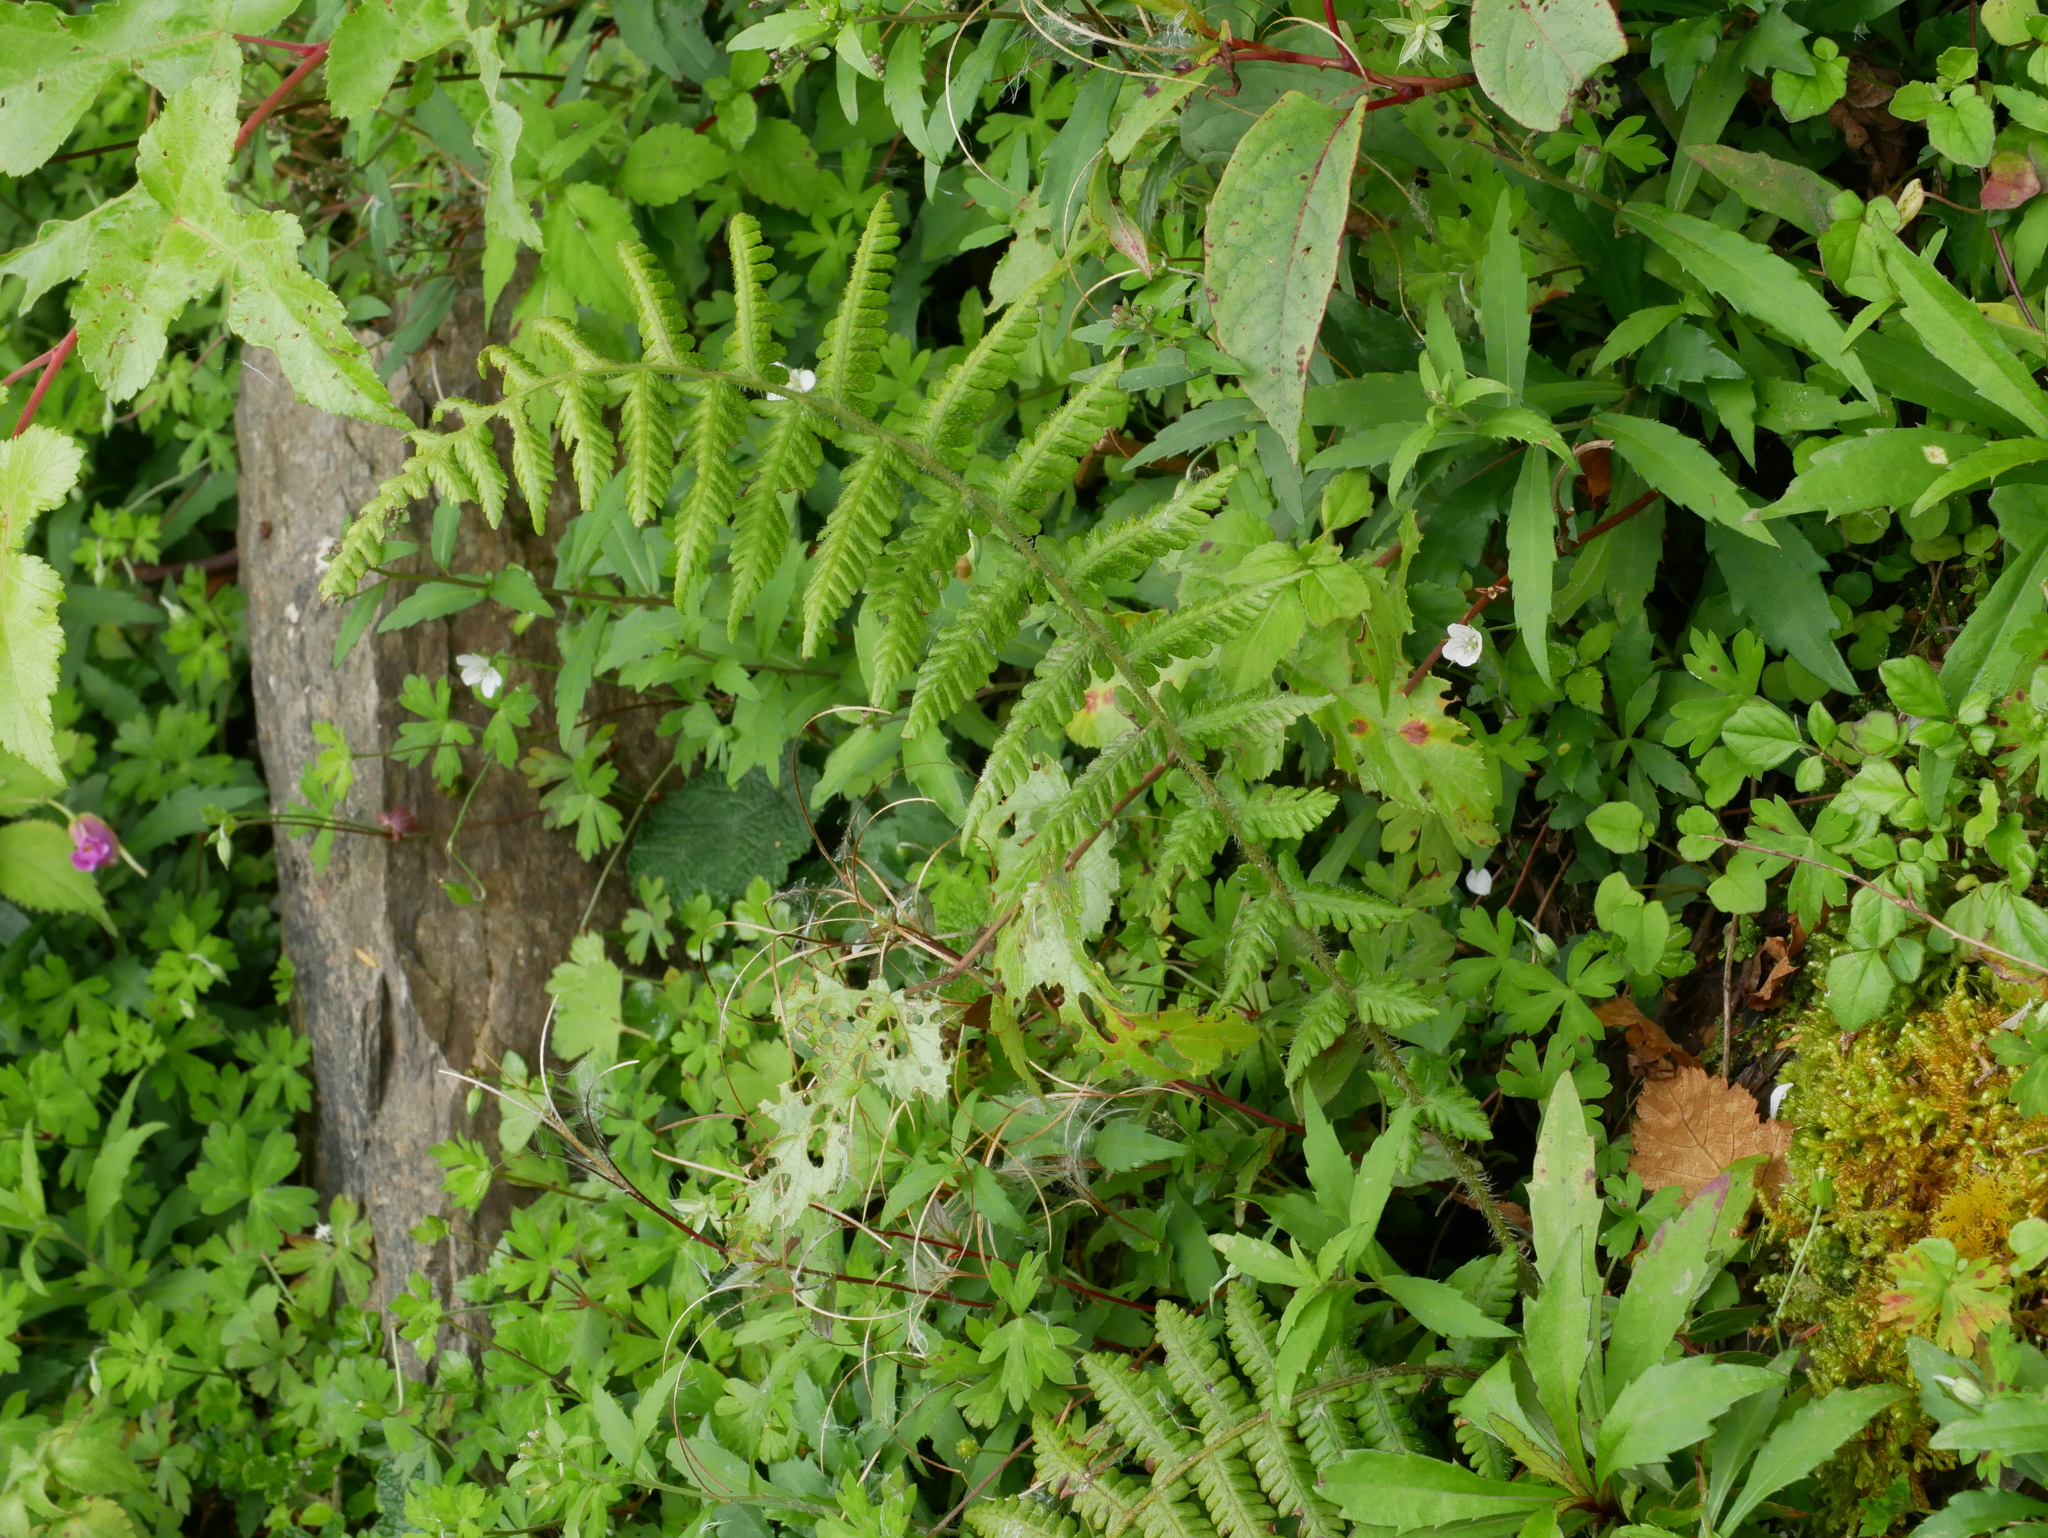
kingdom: Plantae
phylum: Tracheophyta
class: Polypodiopsida
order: Polypodiales
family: Athyriaceae
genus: Deparia
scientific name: Deparia jiulungensis
